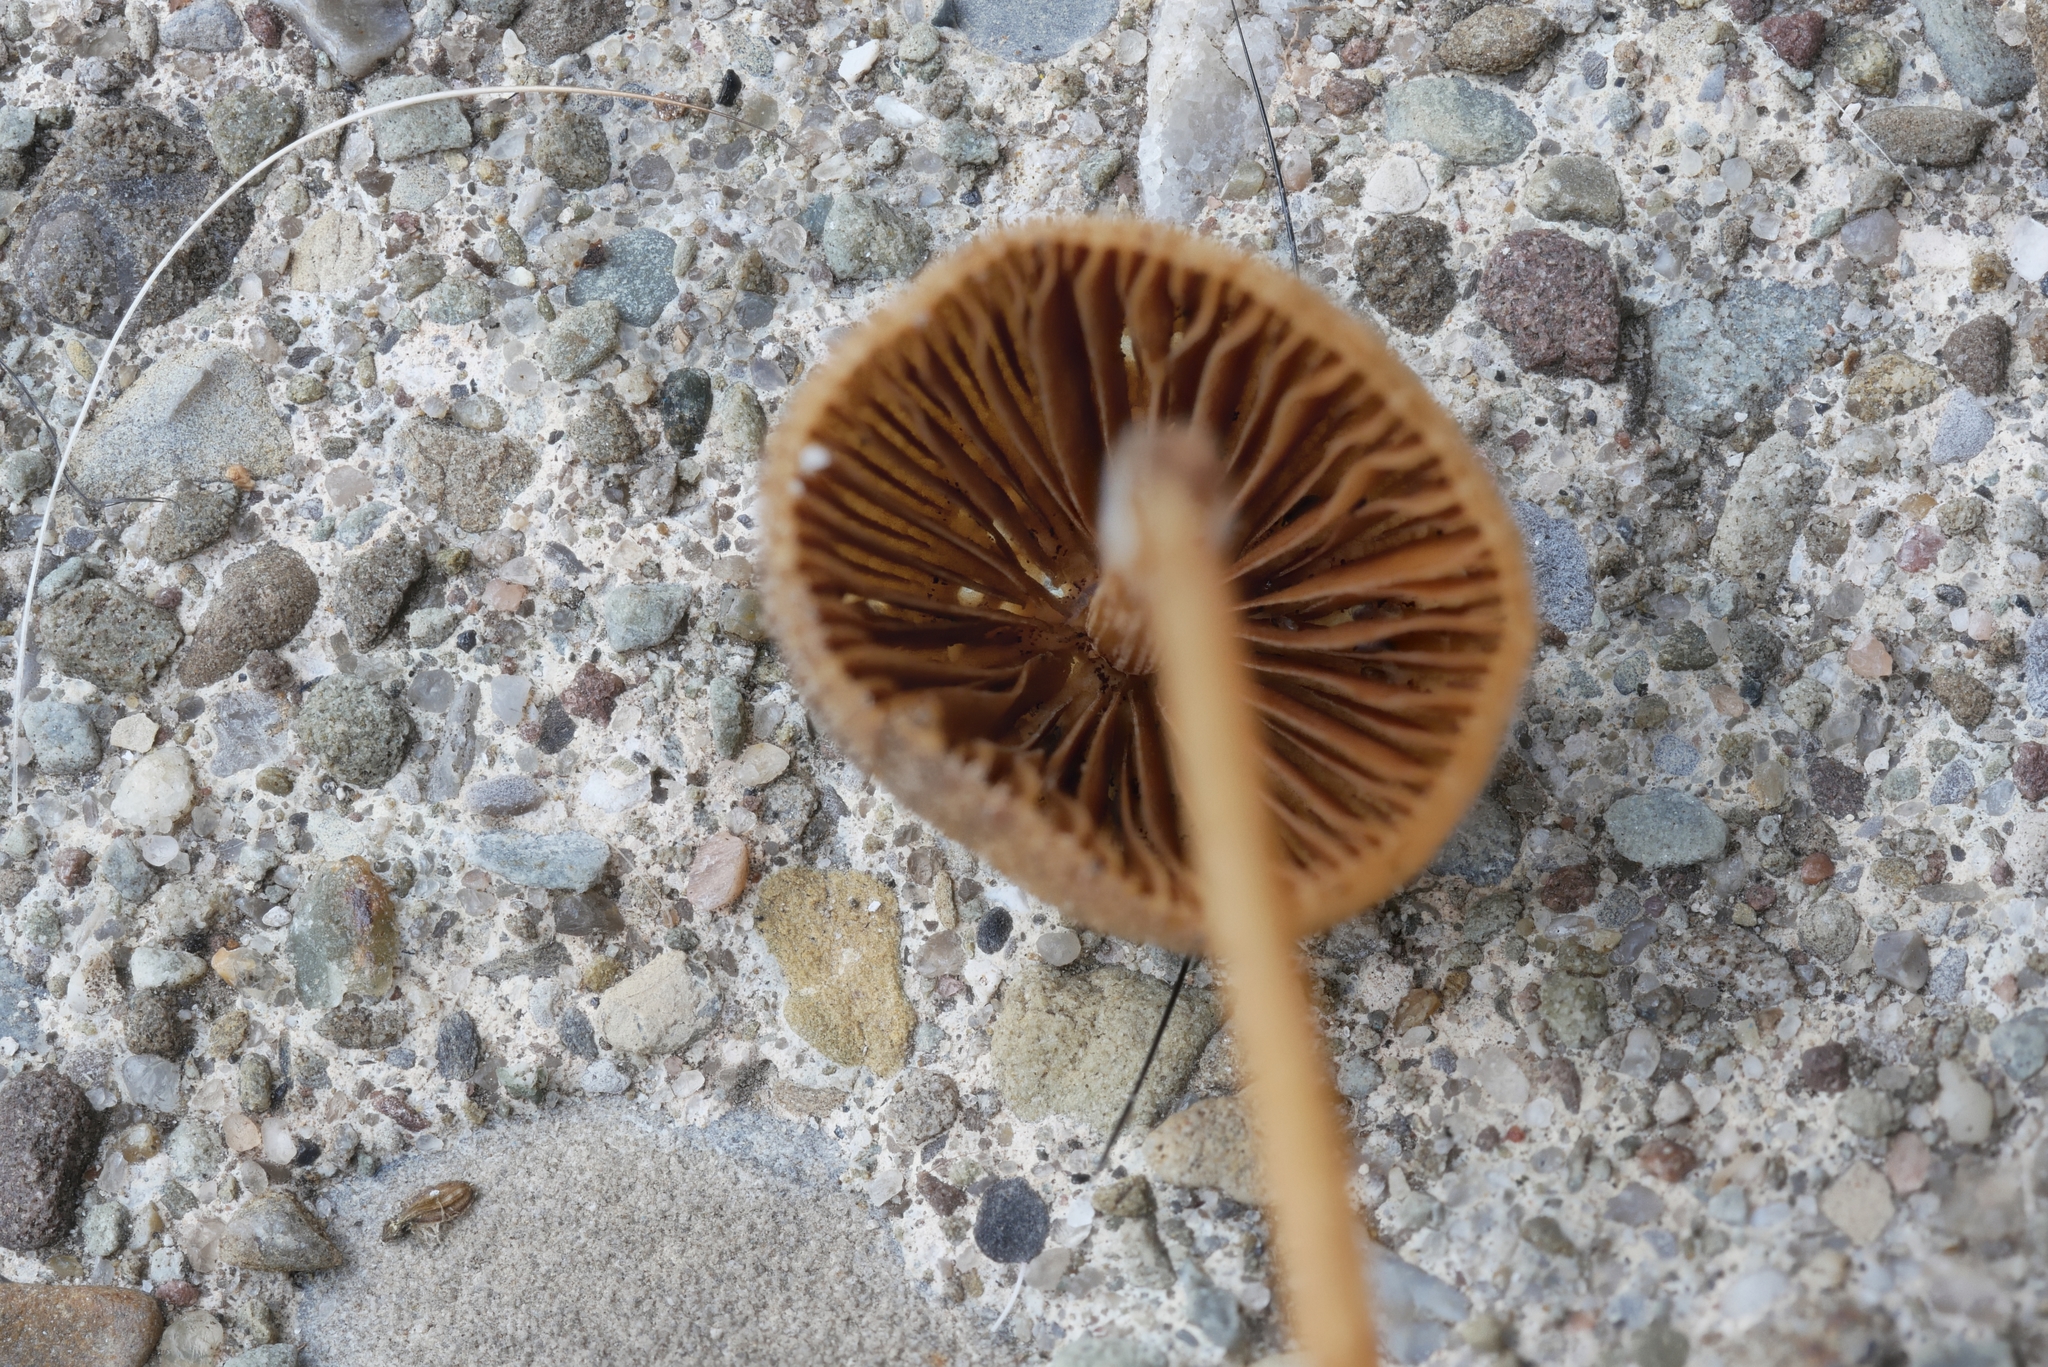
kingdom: Fungi
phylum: Basidiomycota
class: Agaricomycetes
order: Agaricales
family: Bolbitiaceae
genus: Conocybe
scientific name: Conocybe semiglobata
